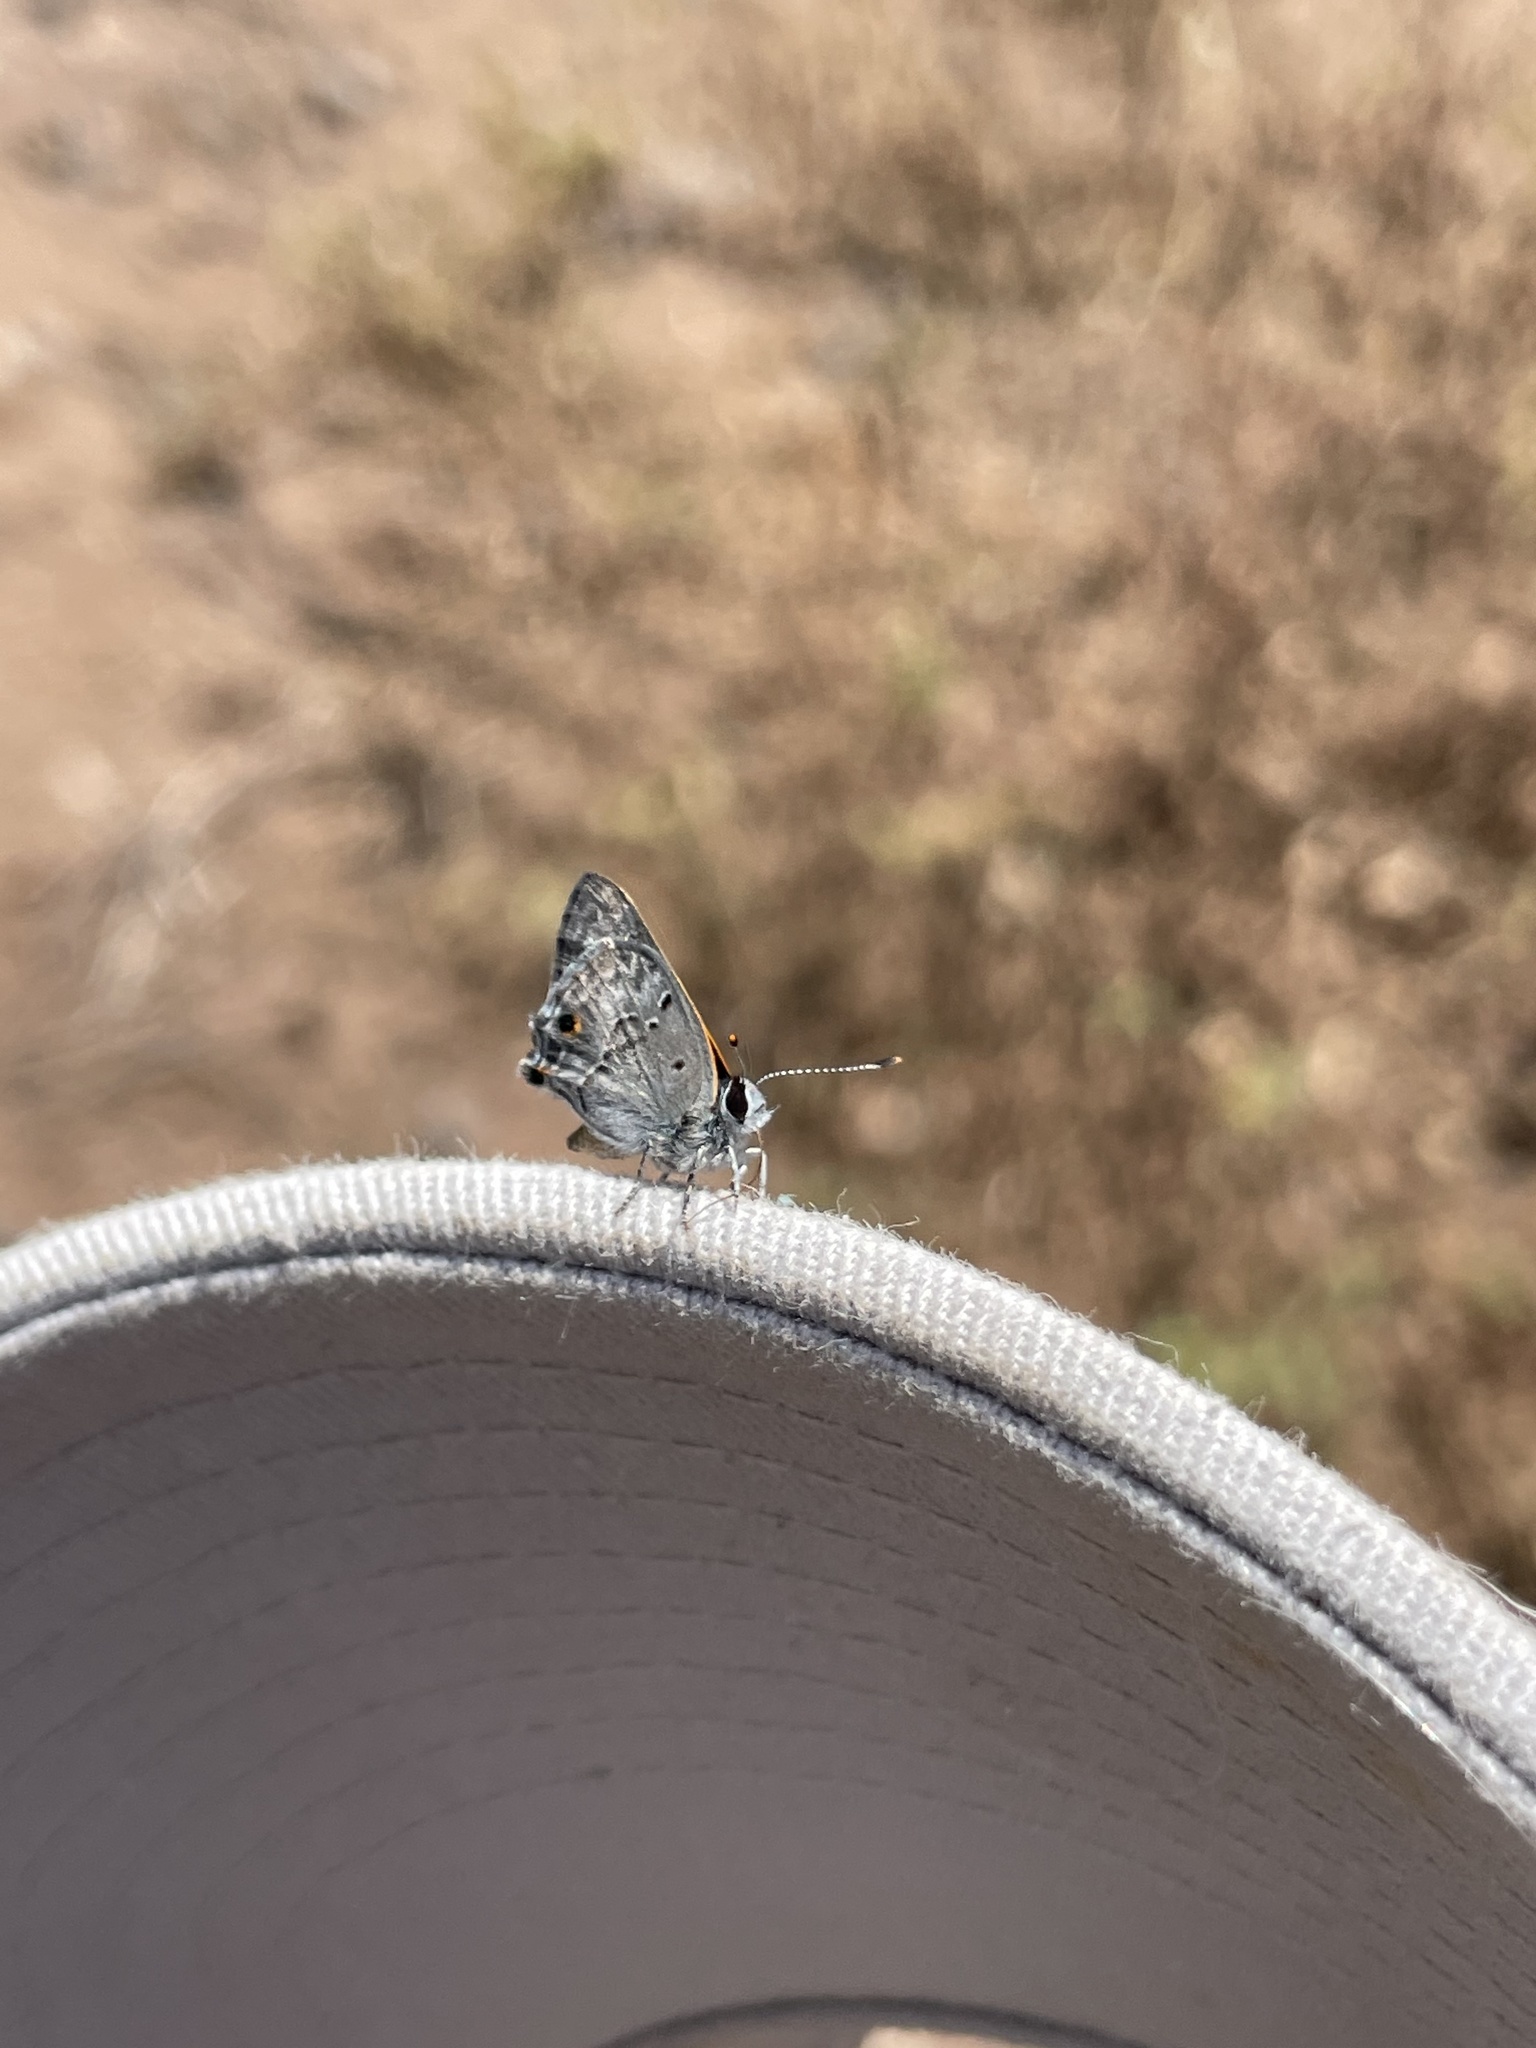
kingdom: Animalia
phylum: Arthropoda
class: Insecta
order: Lepidoptera
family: Lycaenidae
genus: Callicista
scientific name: Callicista columella
